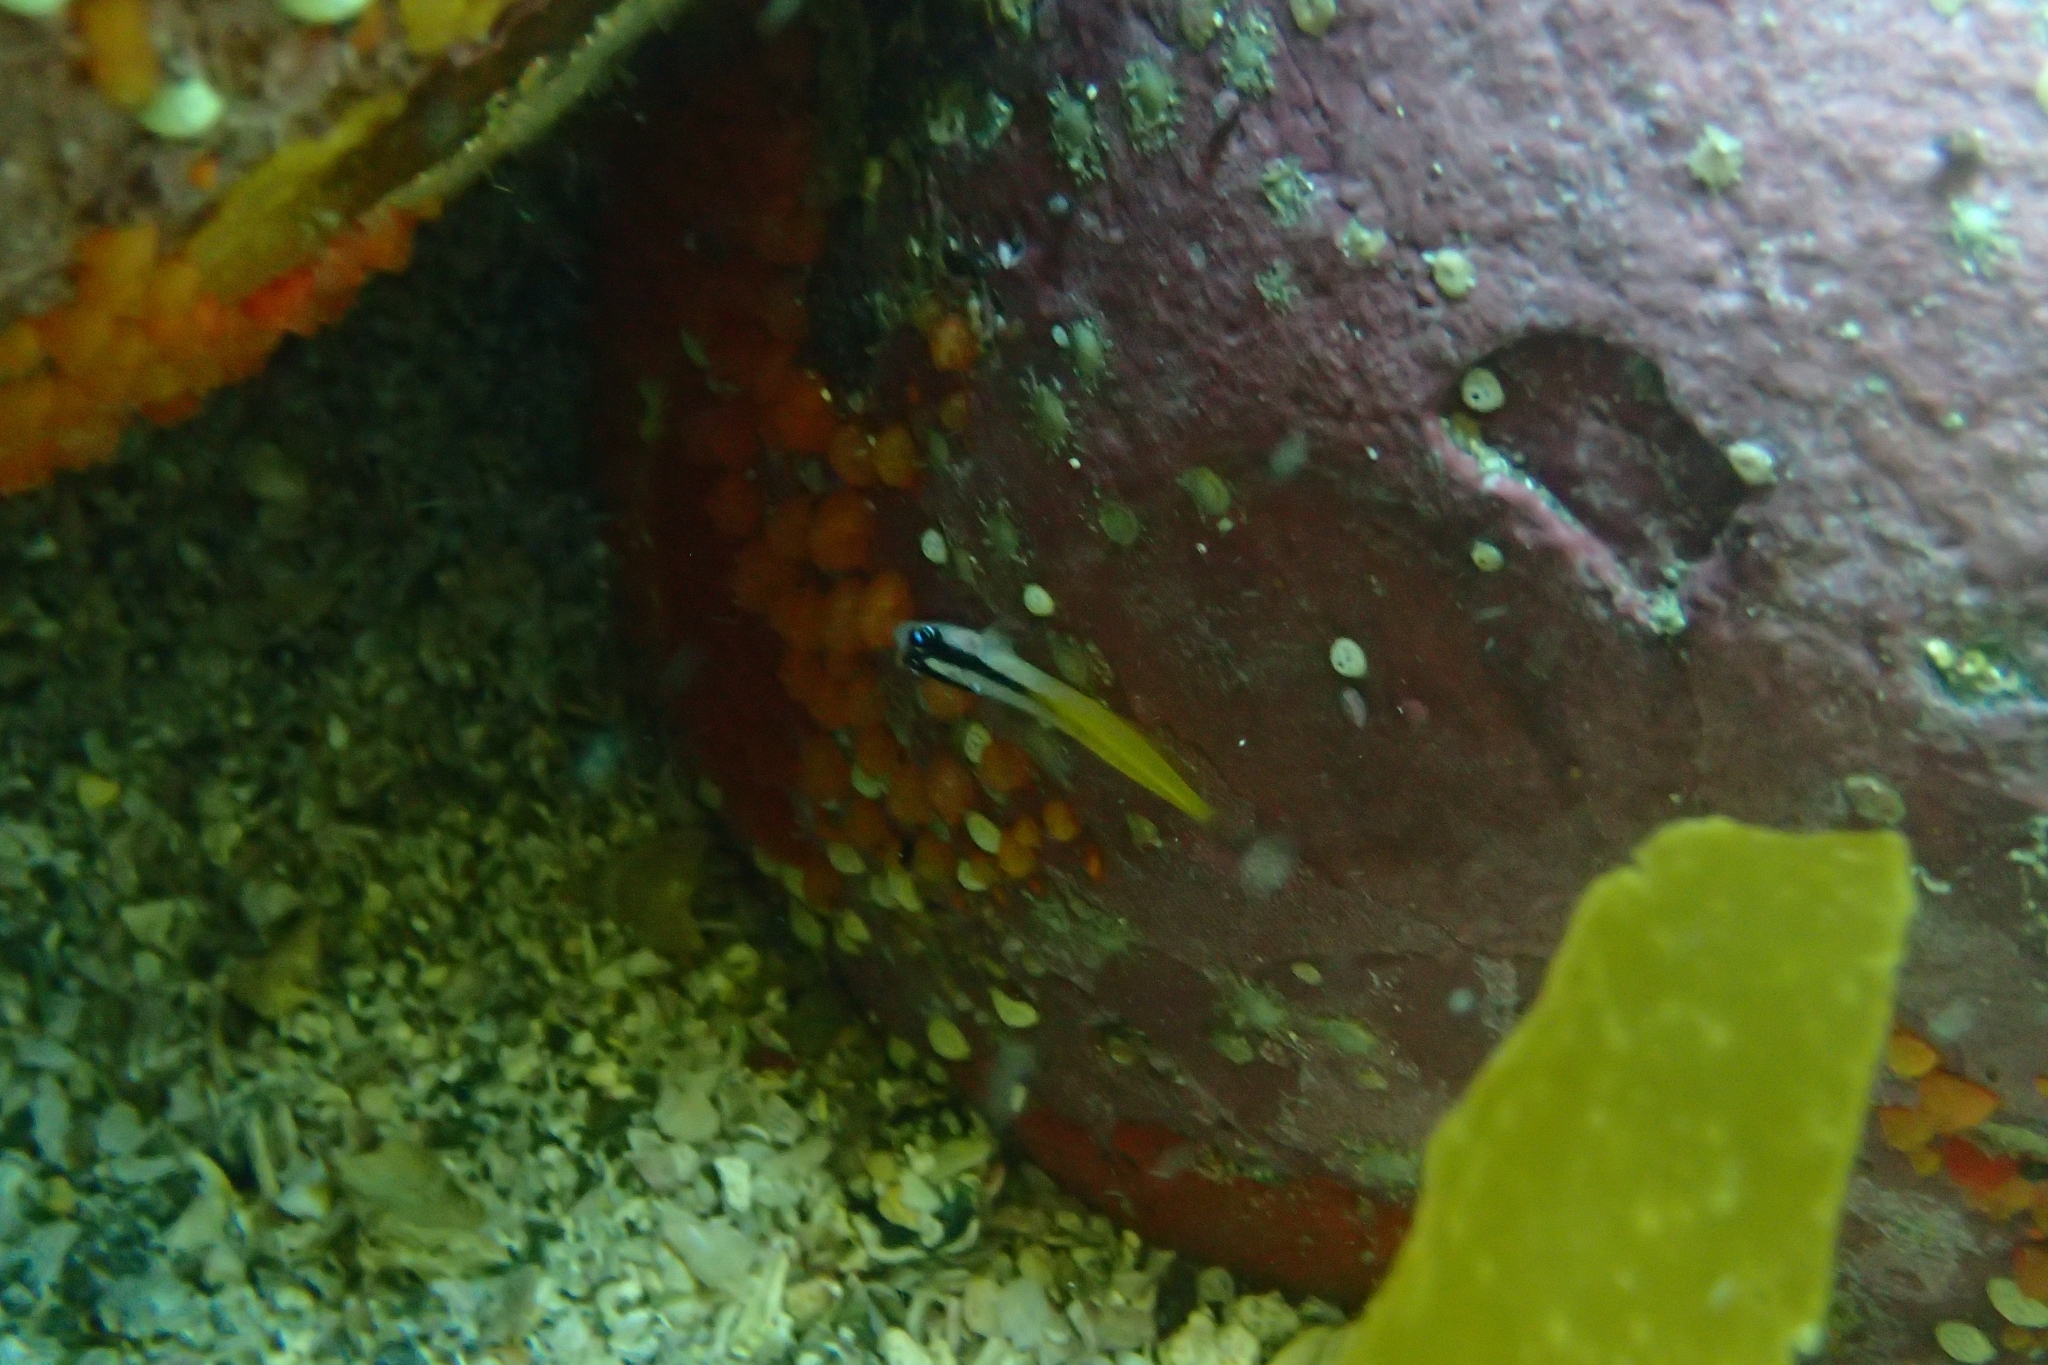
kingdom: Animalia
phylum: Chordata
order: Perciformes
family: Tripterygiidae
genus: Forsterygion
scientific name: Forsterygion flavonigrum
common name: Yellow-and-black triplefin
